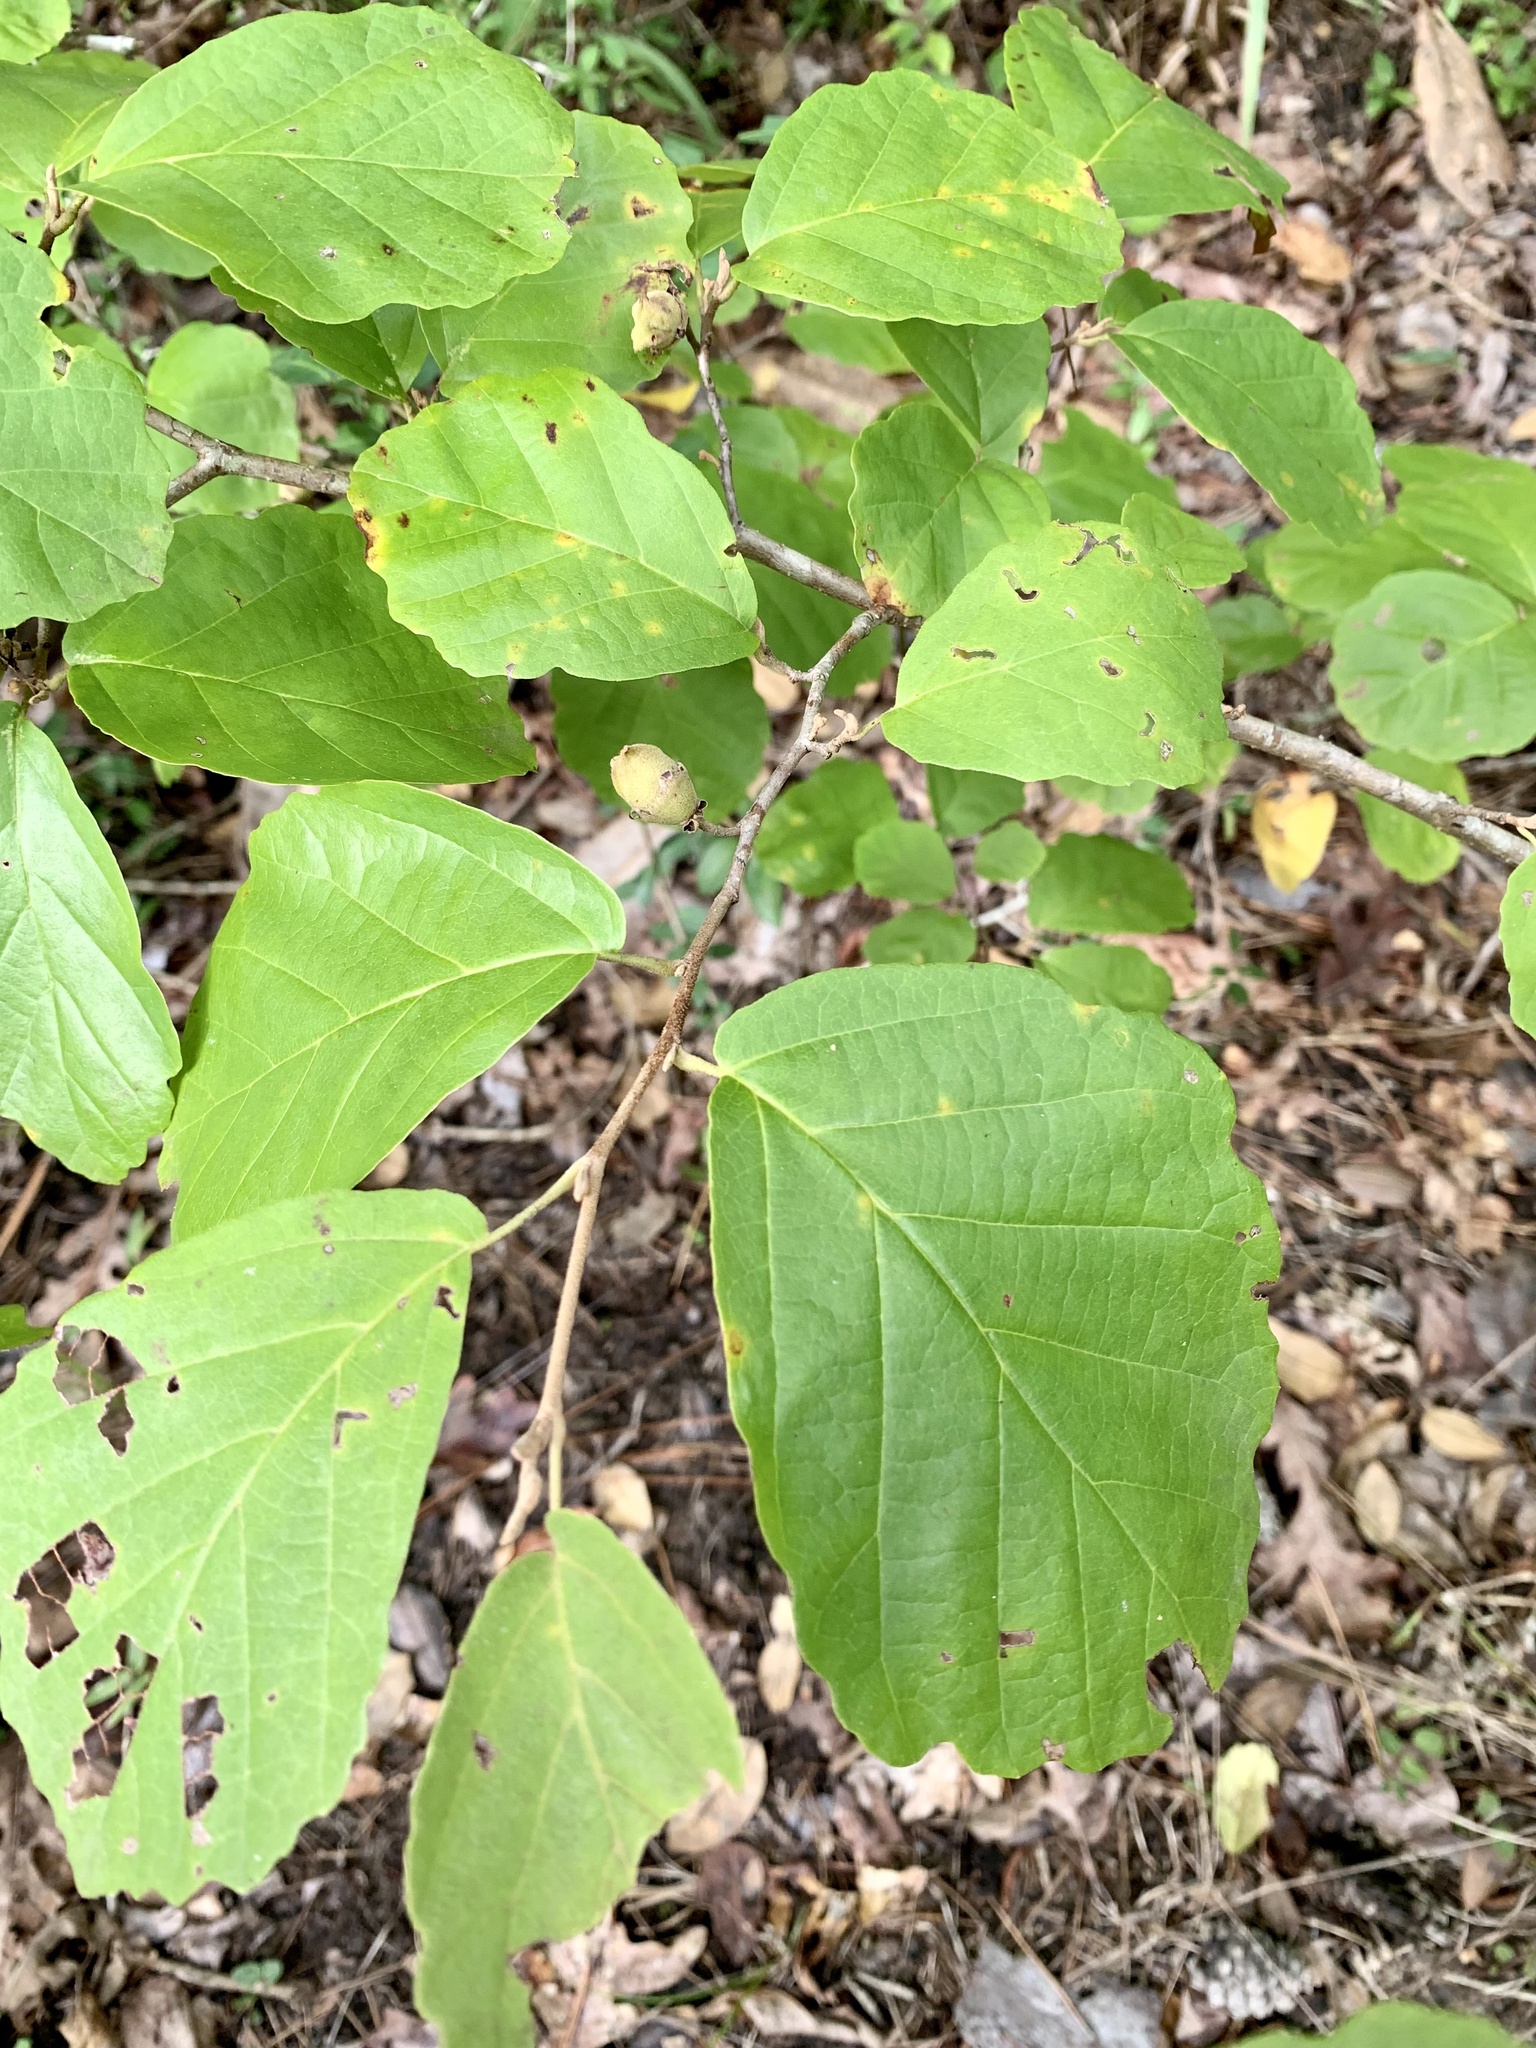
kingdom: Plantae
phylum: Tracheophyta
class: Magnoliopsida
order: Saxifragales
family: Hamamelidaceae
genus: Hamamelis
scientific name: Hamamelis virginiana
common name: Witch-hazel
